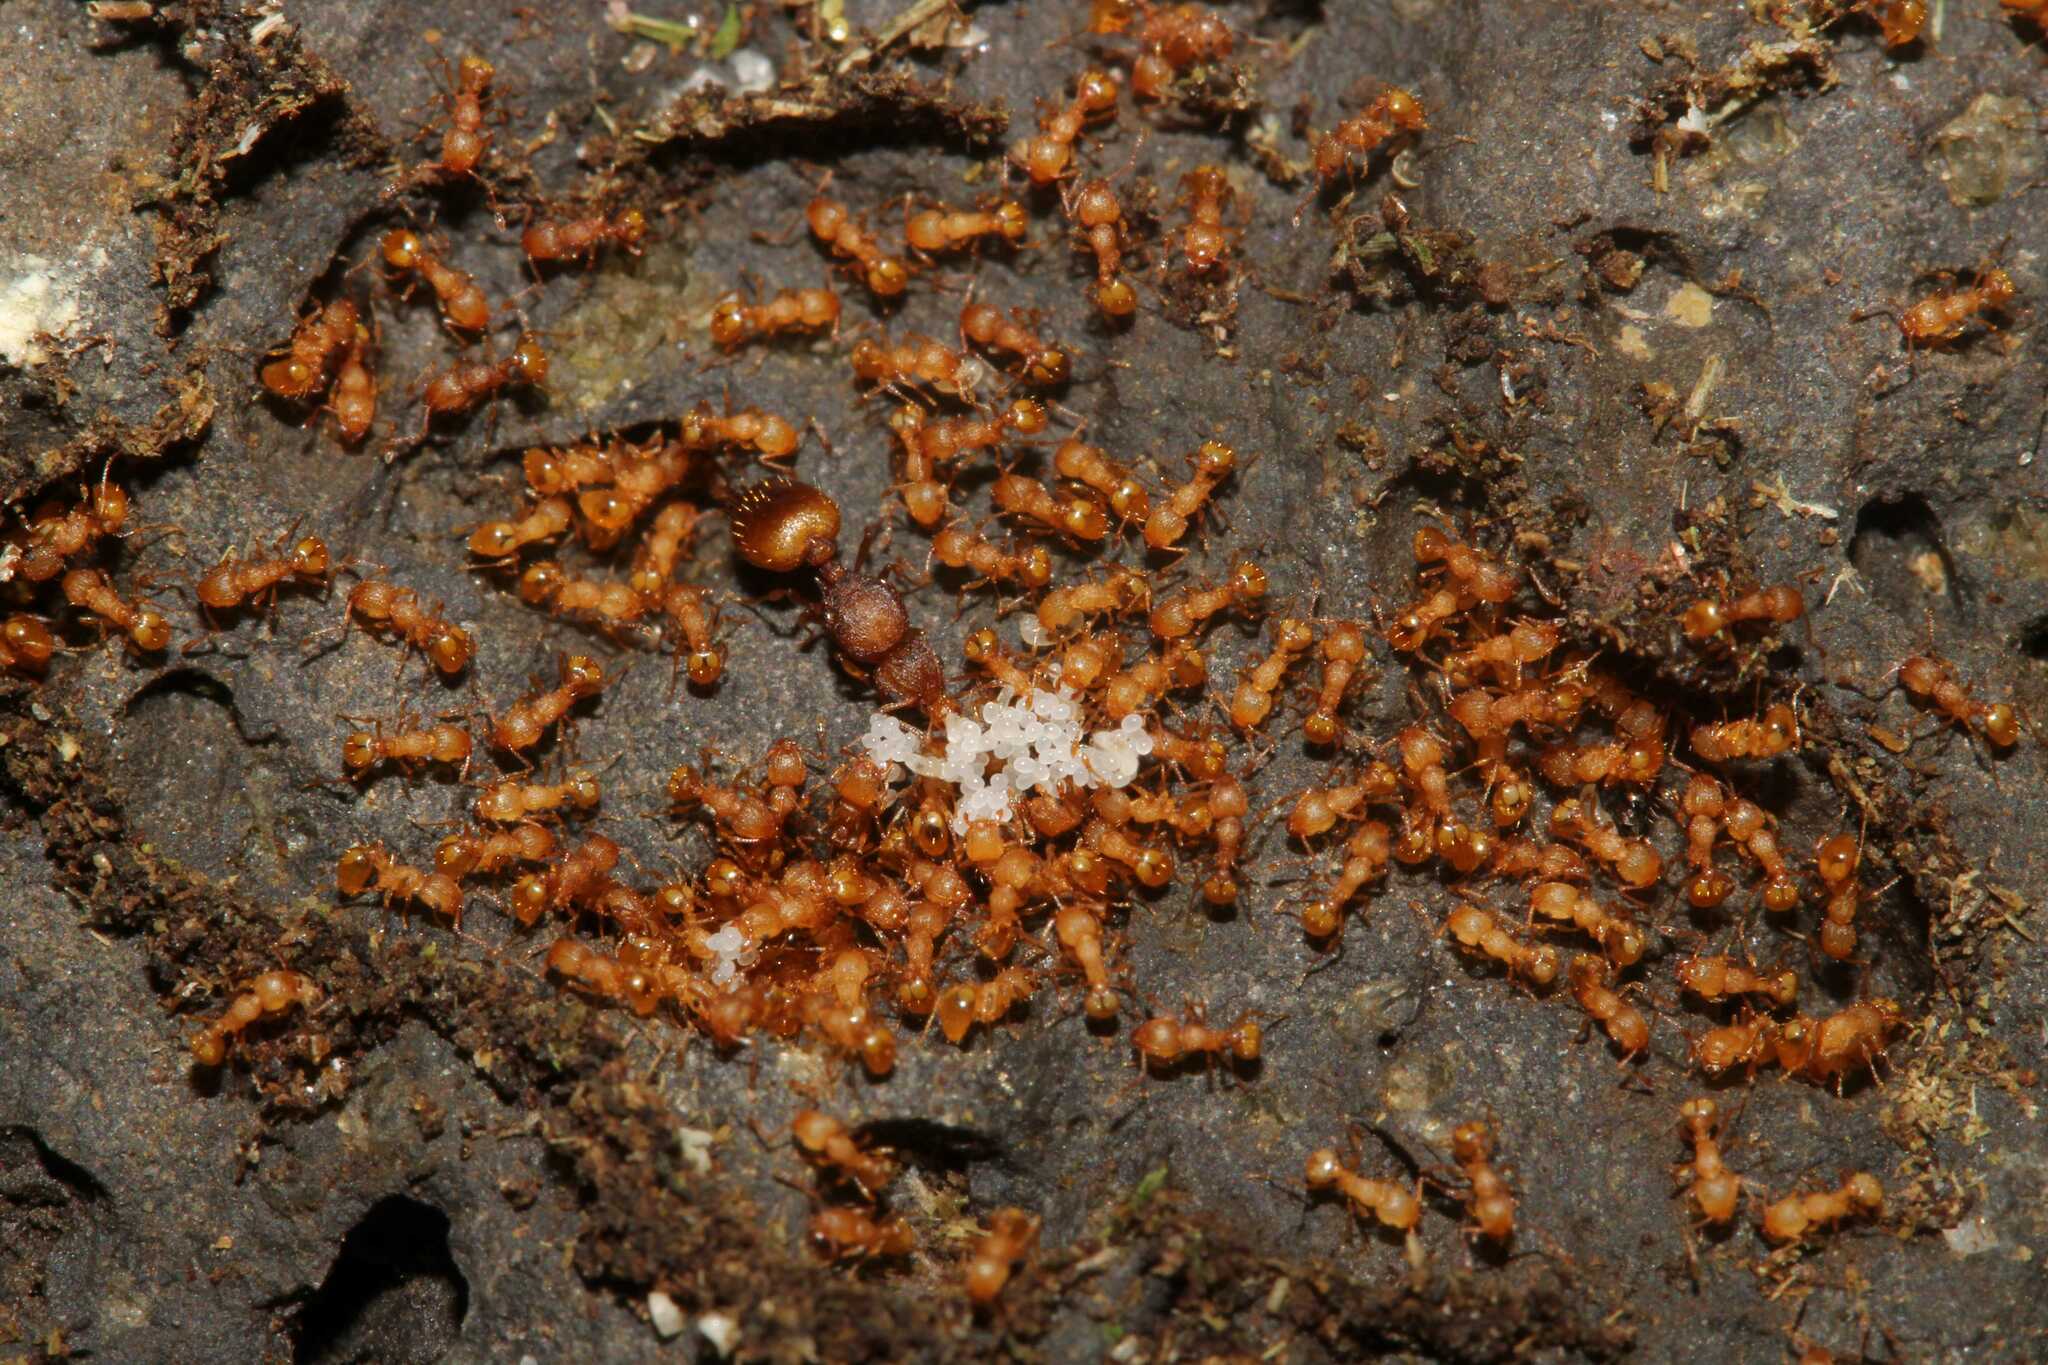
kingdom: Animalia
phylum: Arthropoda
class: Insecta
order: Hymenoptera
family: Formicidae
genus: Wasmannia
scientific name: Wasmannia auropunctata
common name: Little fire ant
